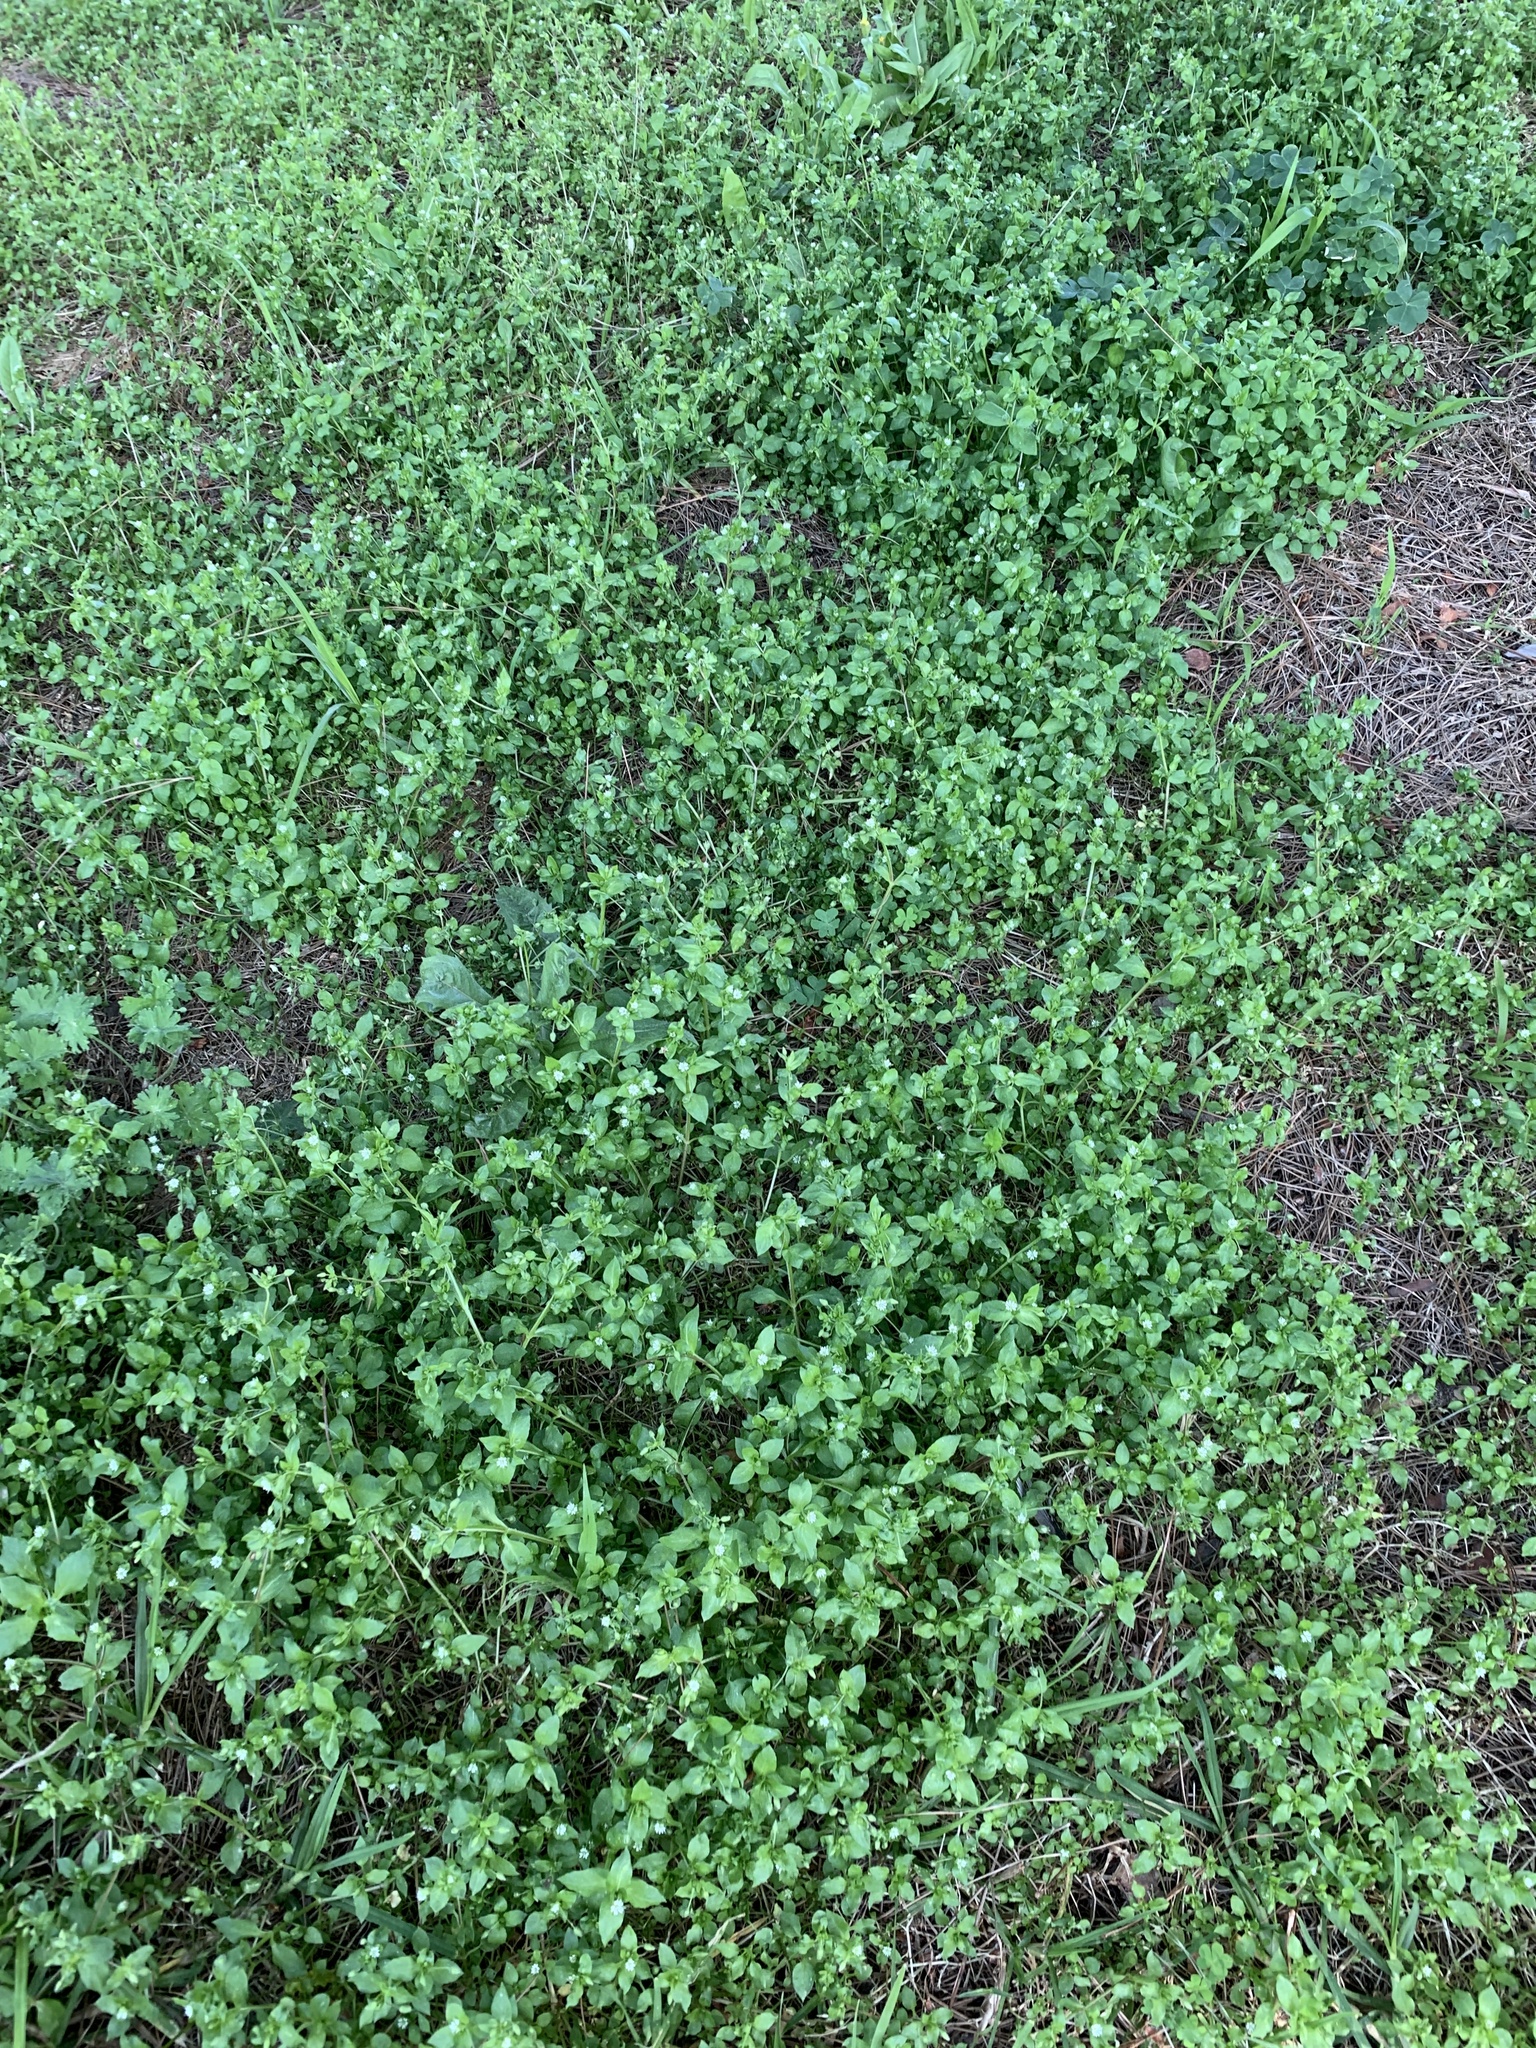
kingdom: Plantae
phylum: Tracheophyta
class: Magnoliopsida
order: Caryophyllales
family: Caryophyllaceae
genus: Stellaria
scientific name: Stellaria media
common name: Common chickweed
